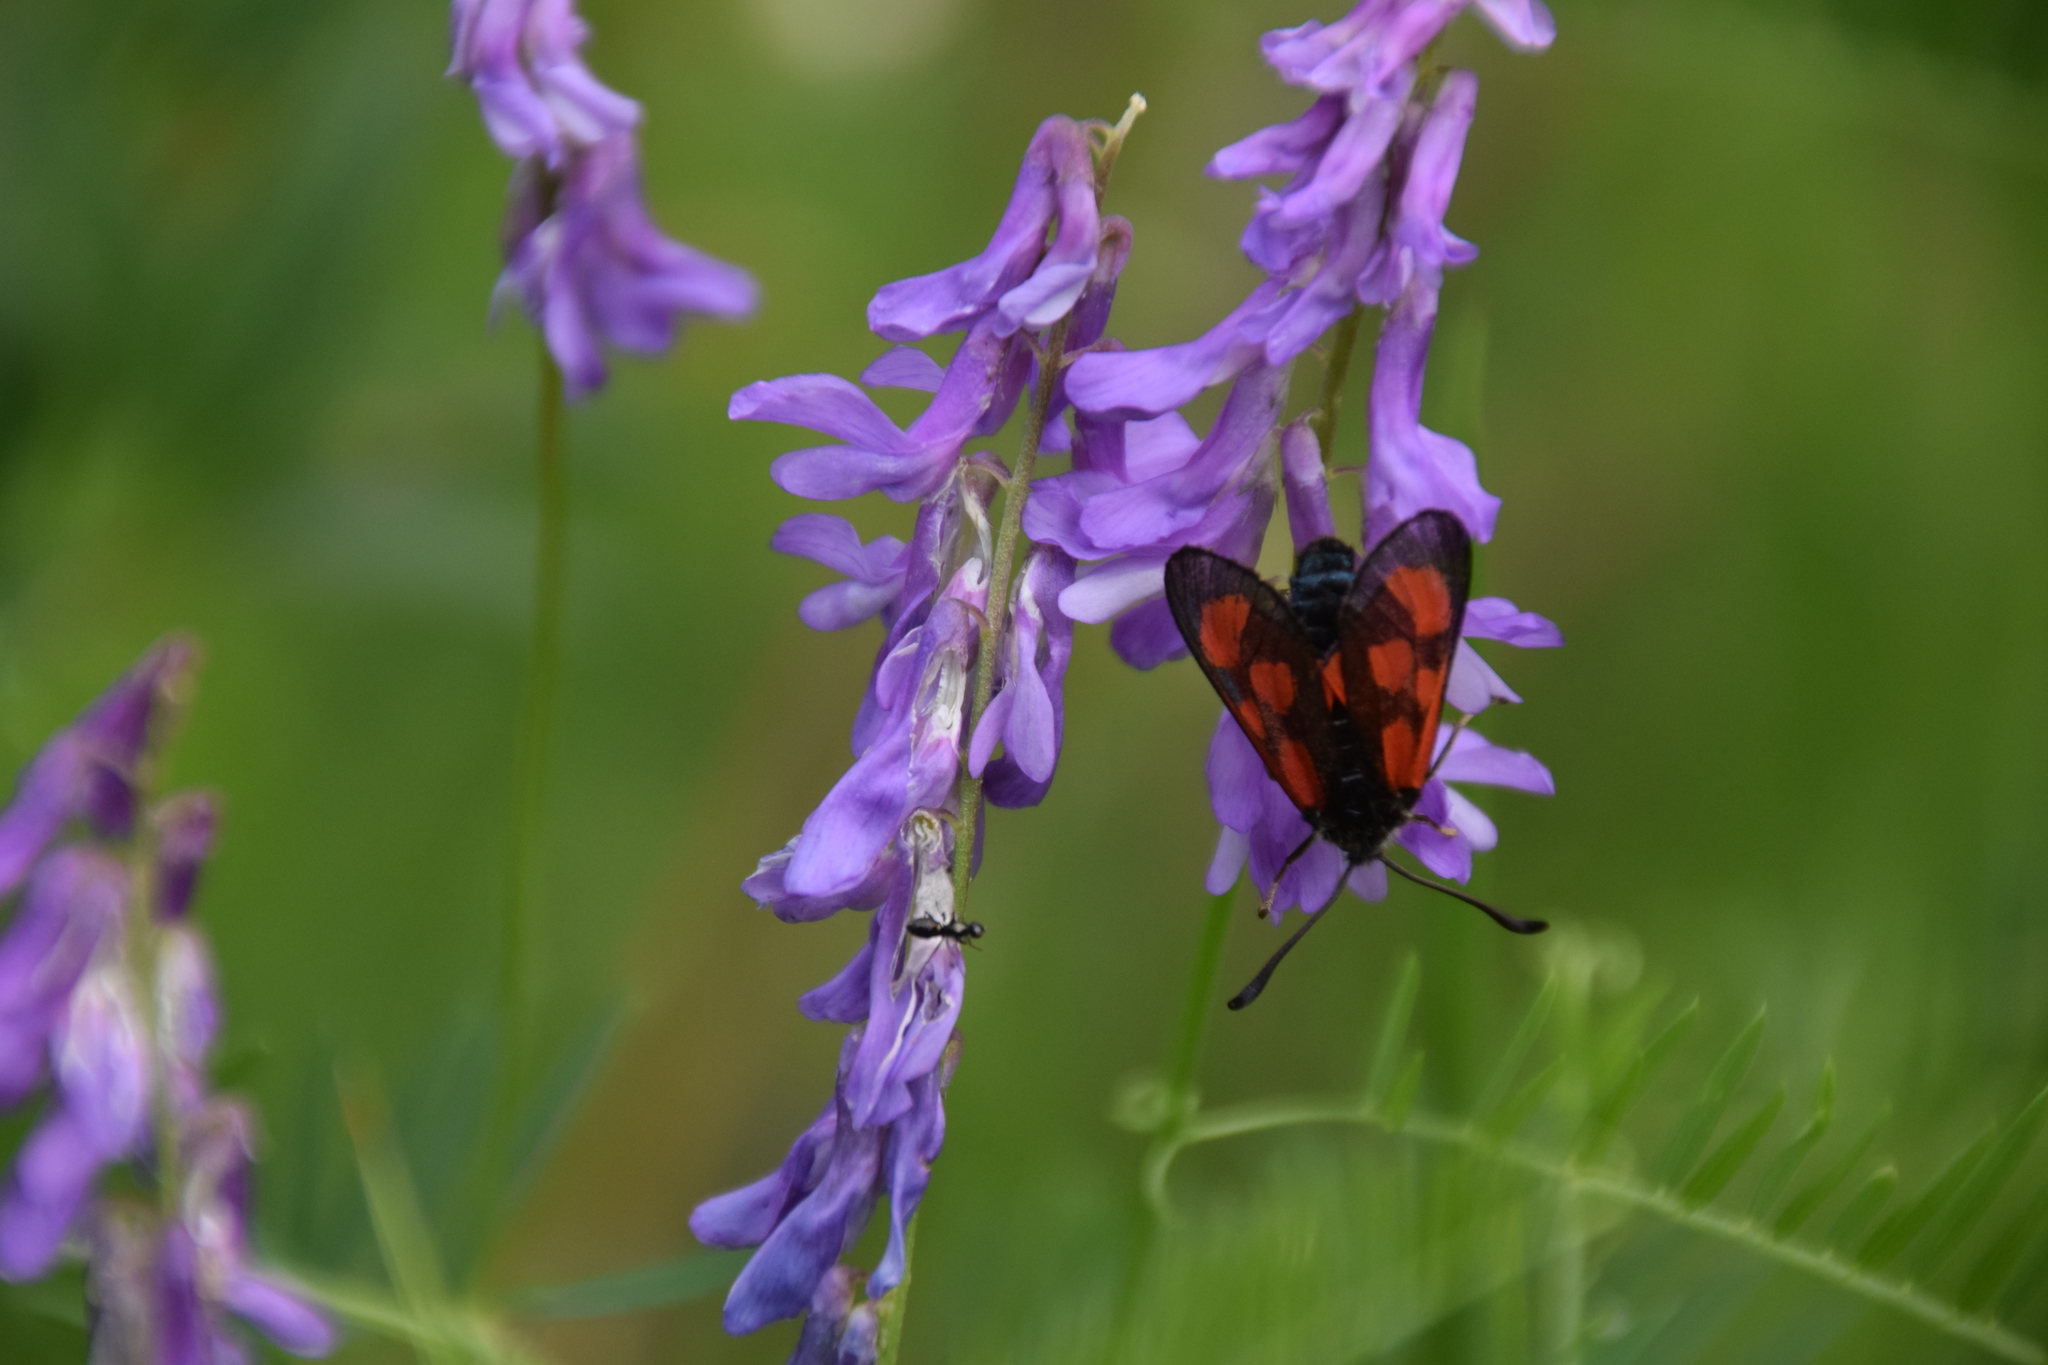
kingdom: Animalia
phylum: Arthropoda
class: Insecta
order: Lepidoptera
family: Zygaenidae
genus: Zygaena
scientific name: Zygaena loti
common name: Slender scotch burnet
